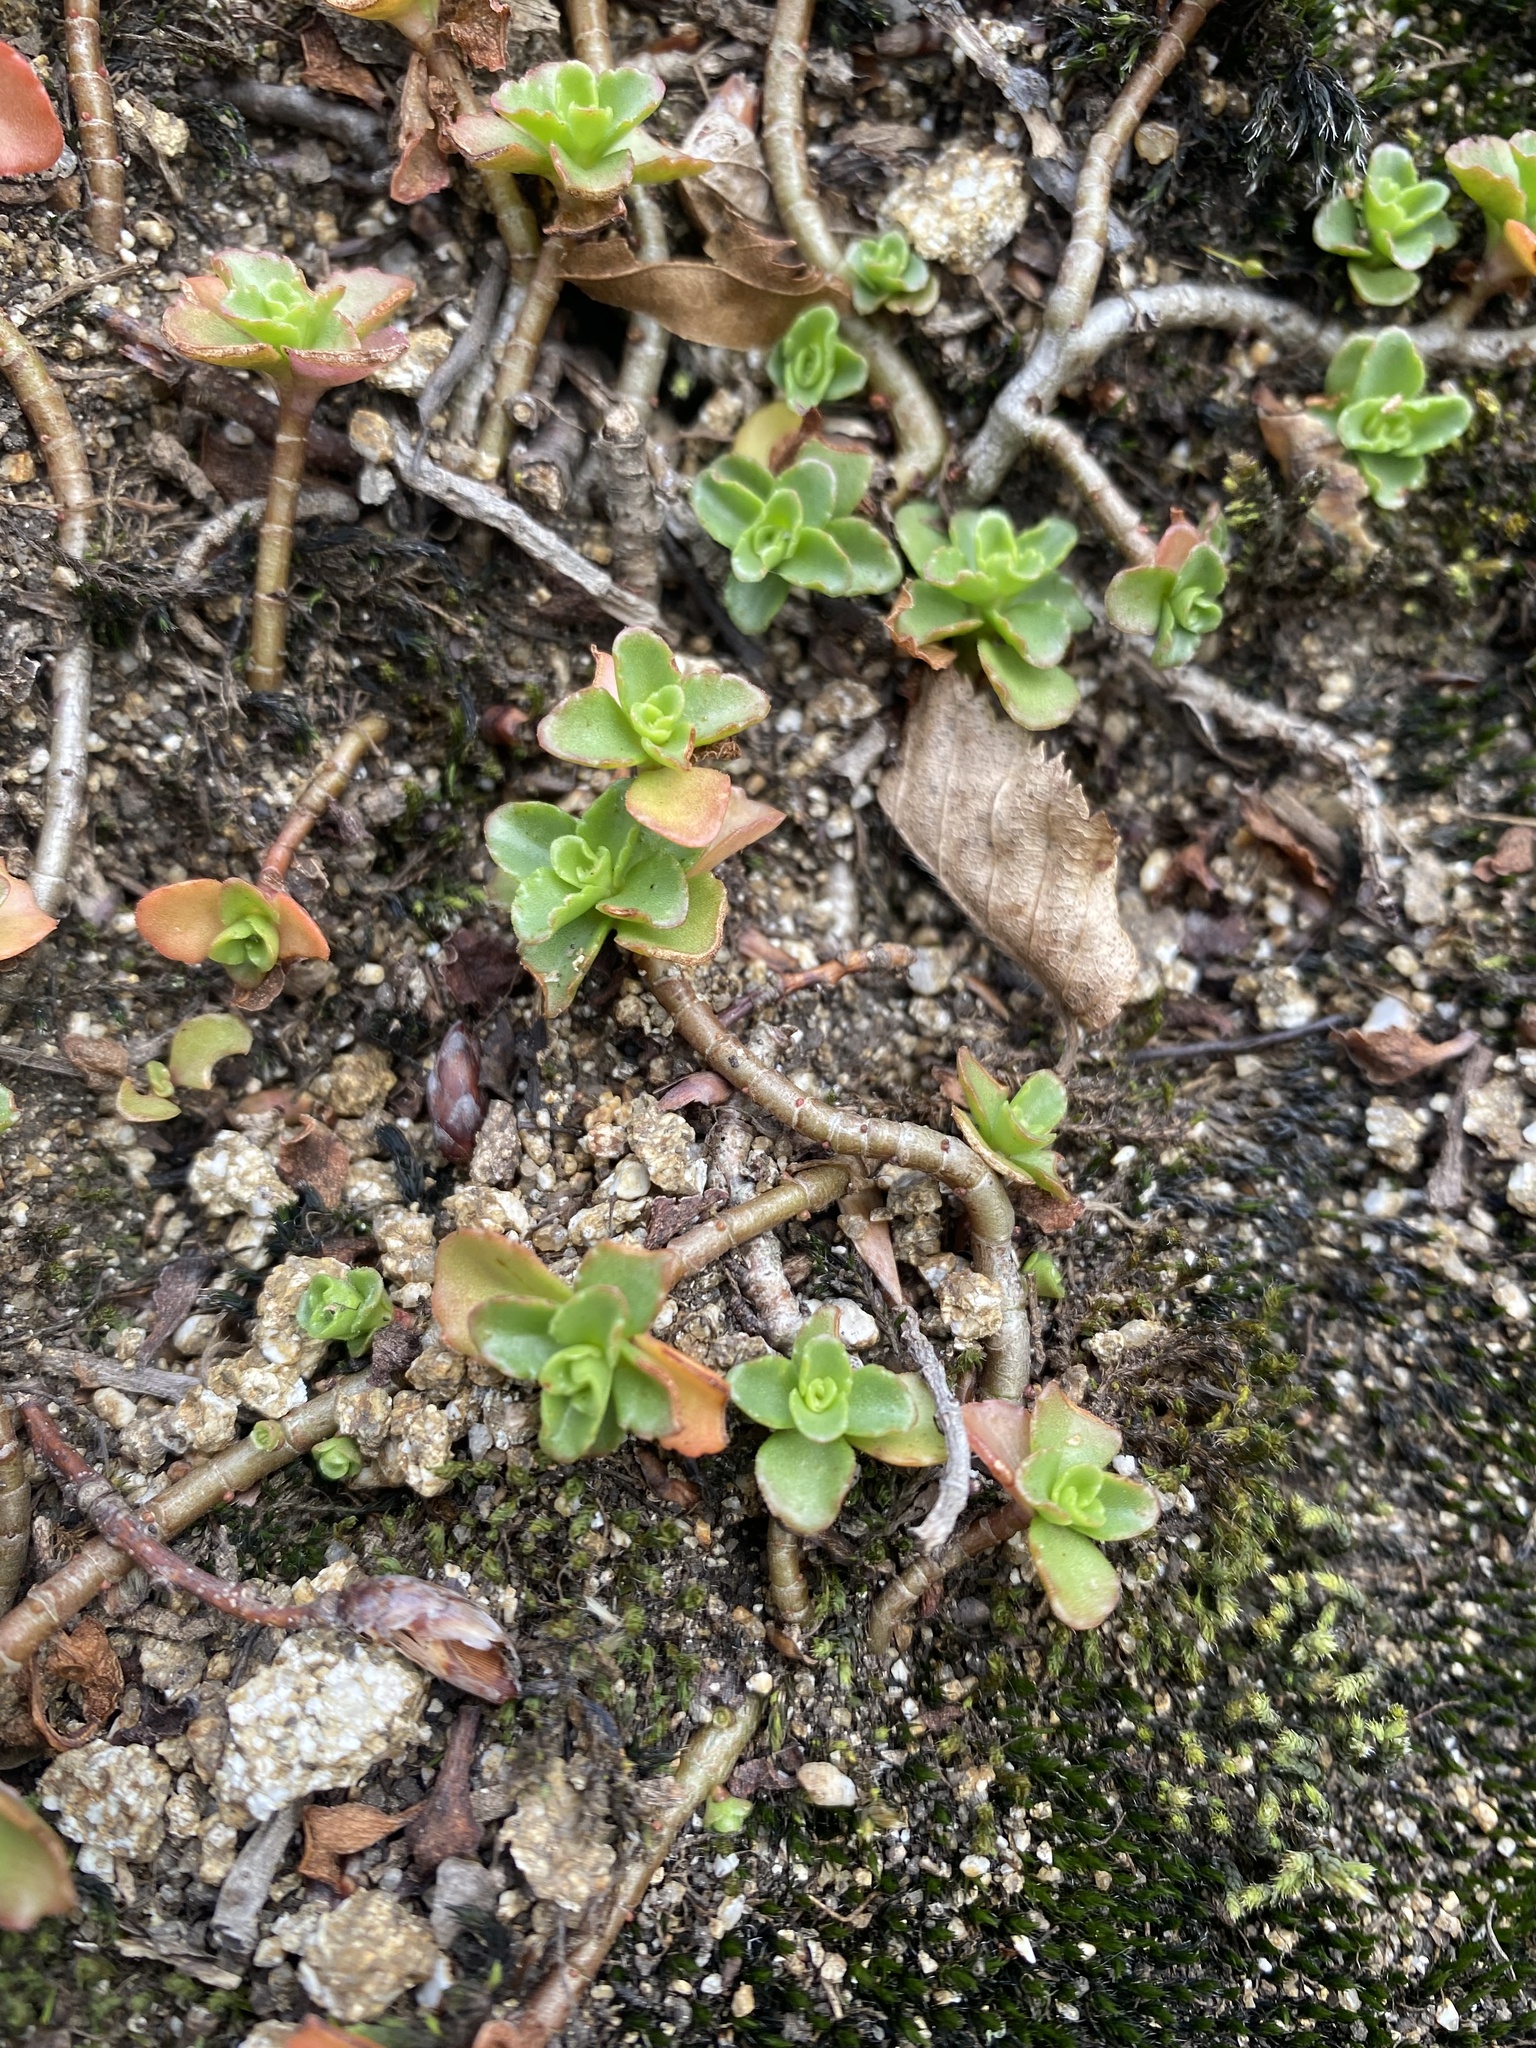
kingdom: Plantae
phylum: Tracheophyta
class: Magnoliopsida
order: Saxifragales
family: Crassulaceae
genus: Phedimus
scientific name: Phedimus spurius
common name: Caucasian stonecrop
